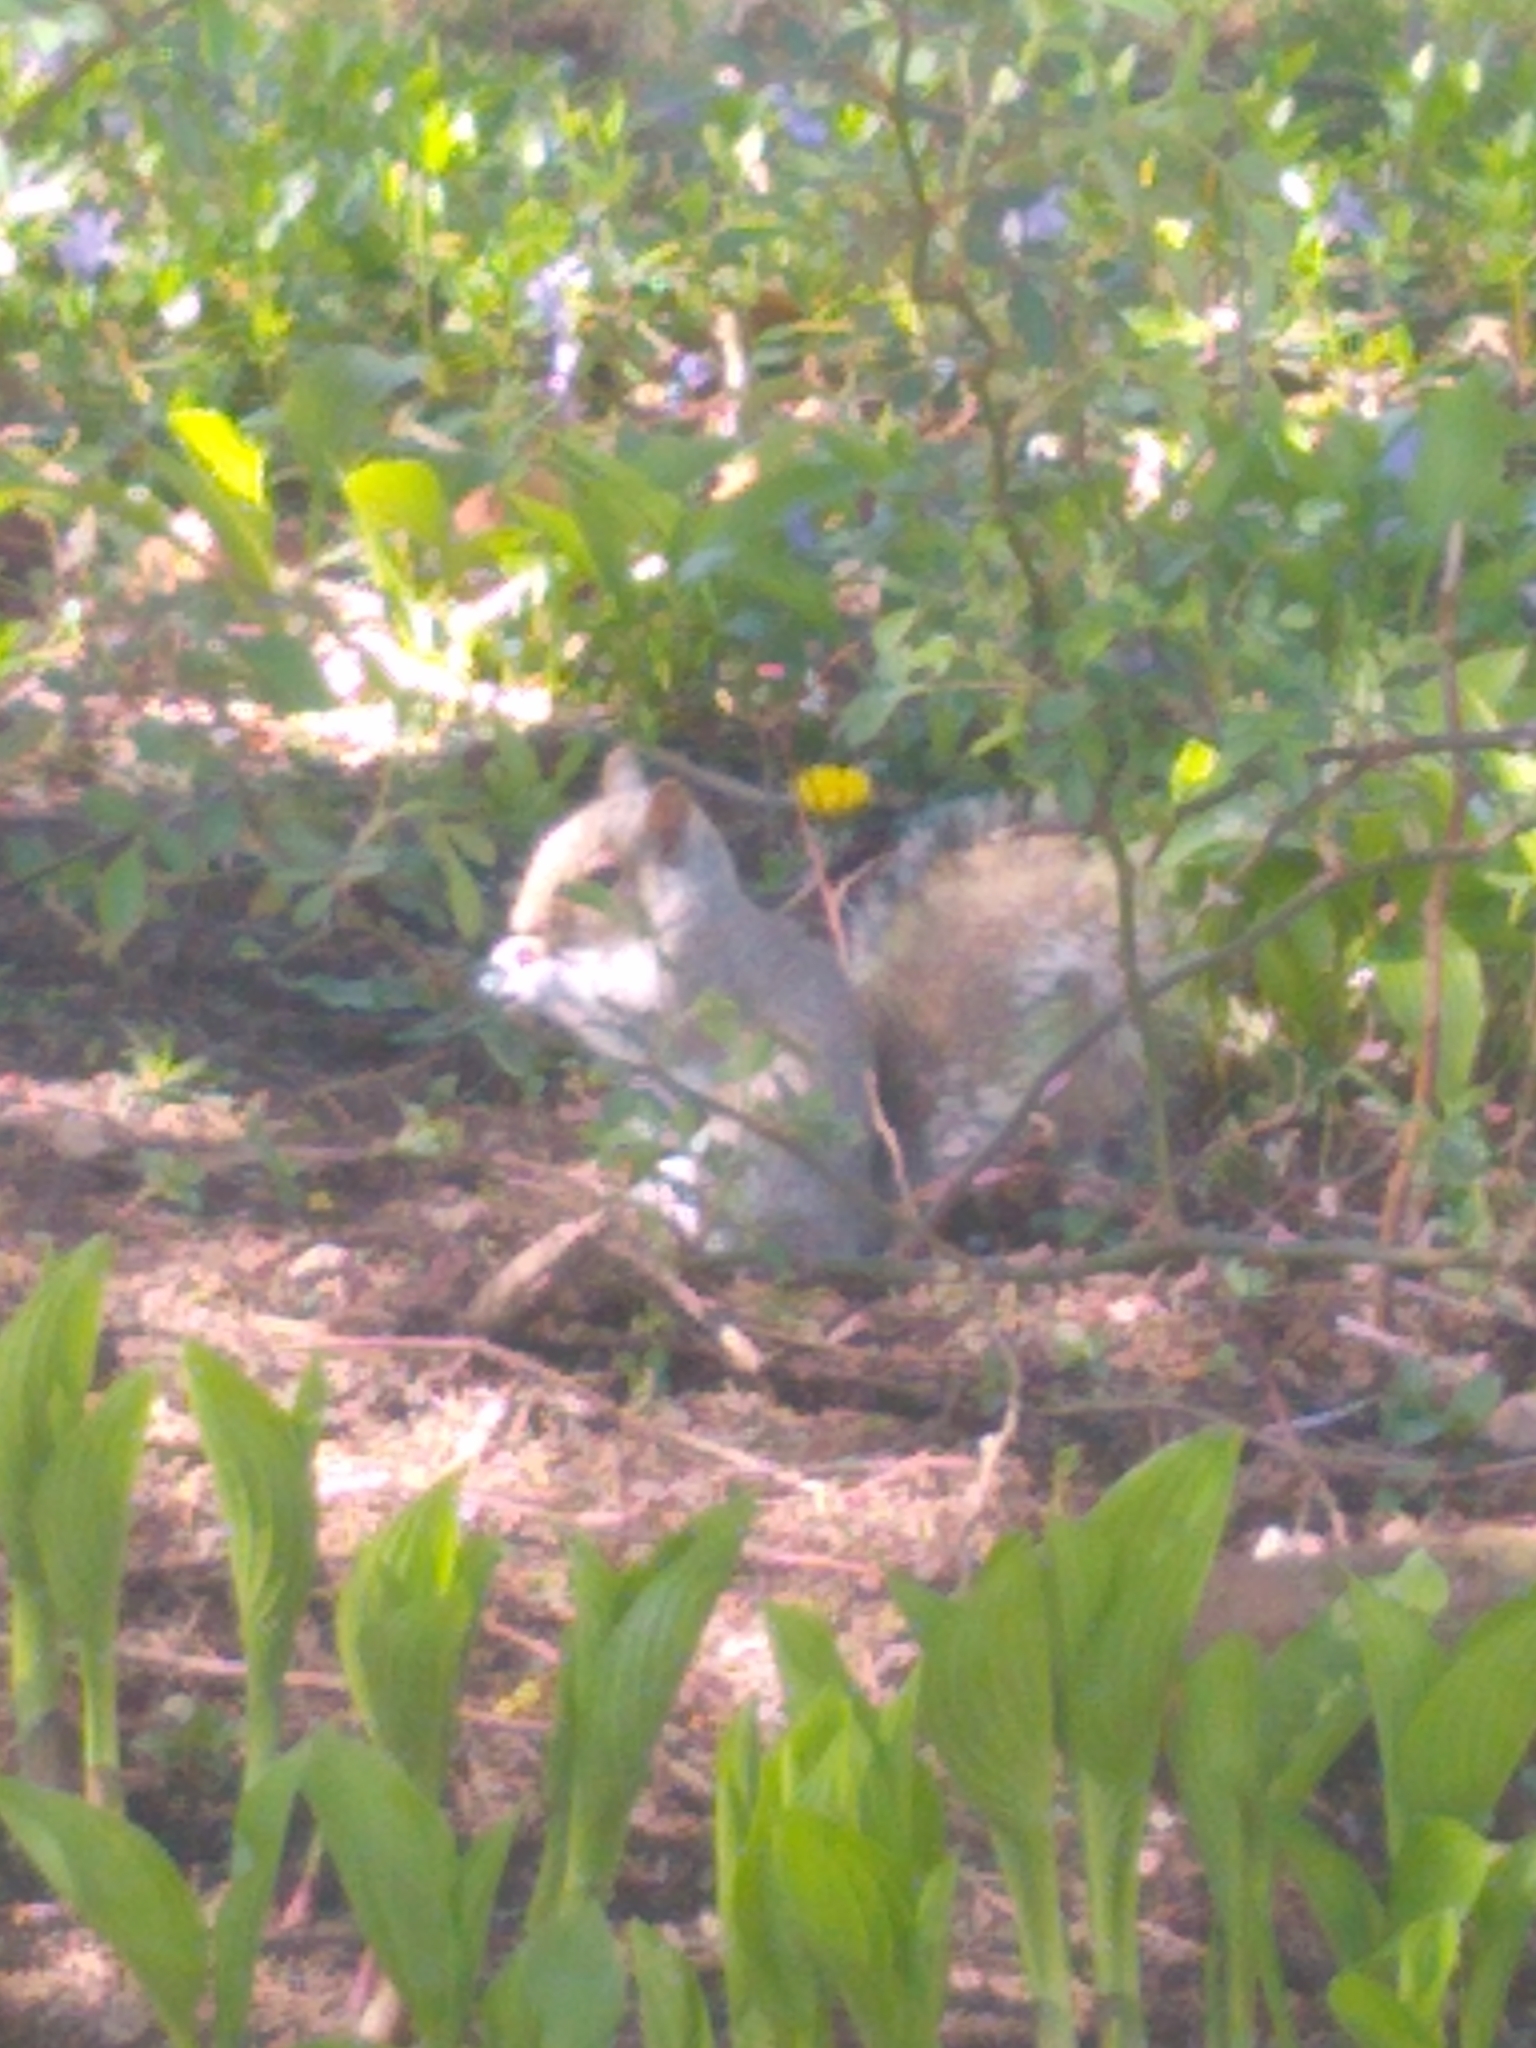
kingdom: Animalia
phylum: Chordata
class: Mammalia
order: Rodentia
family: Sciuridae
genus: Sciurus
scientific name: Sciurus carolinensis
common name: Eastern gray squirrel
